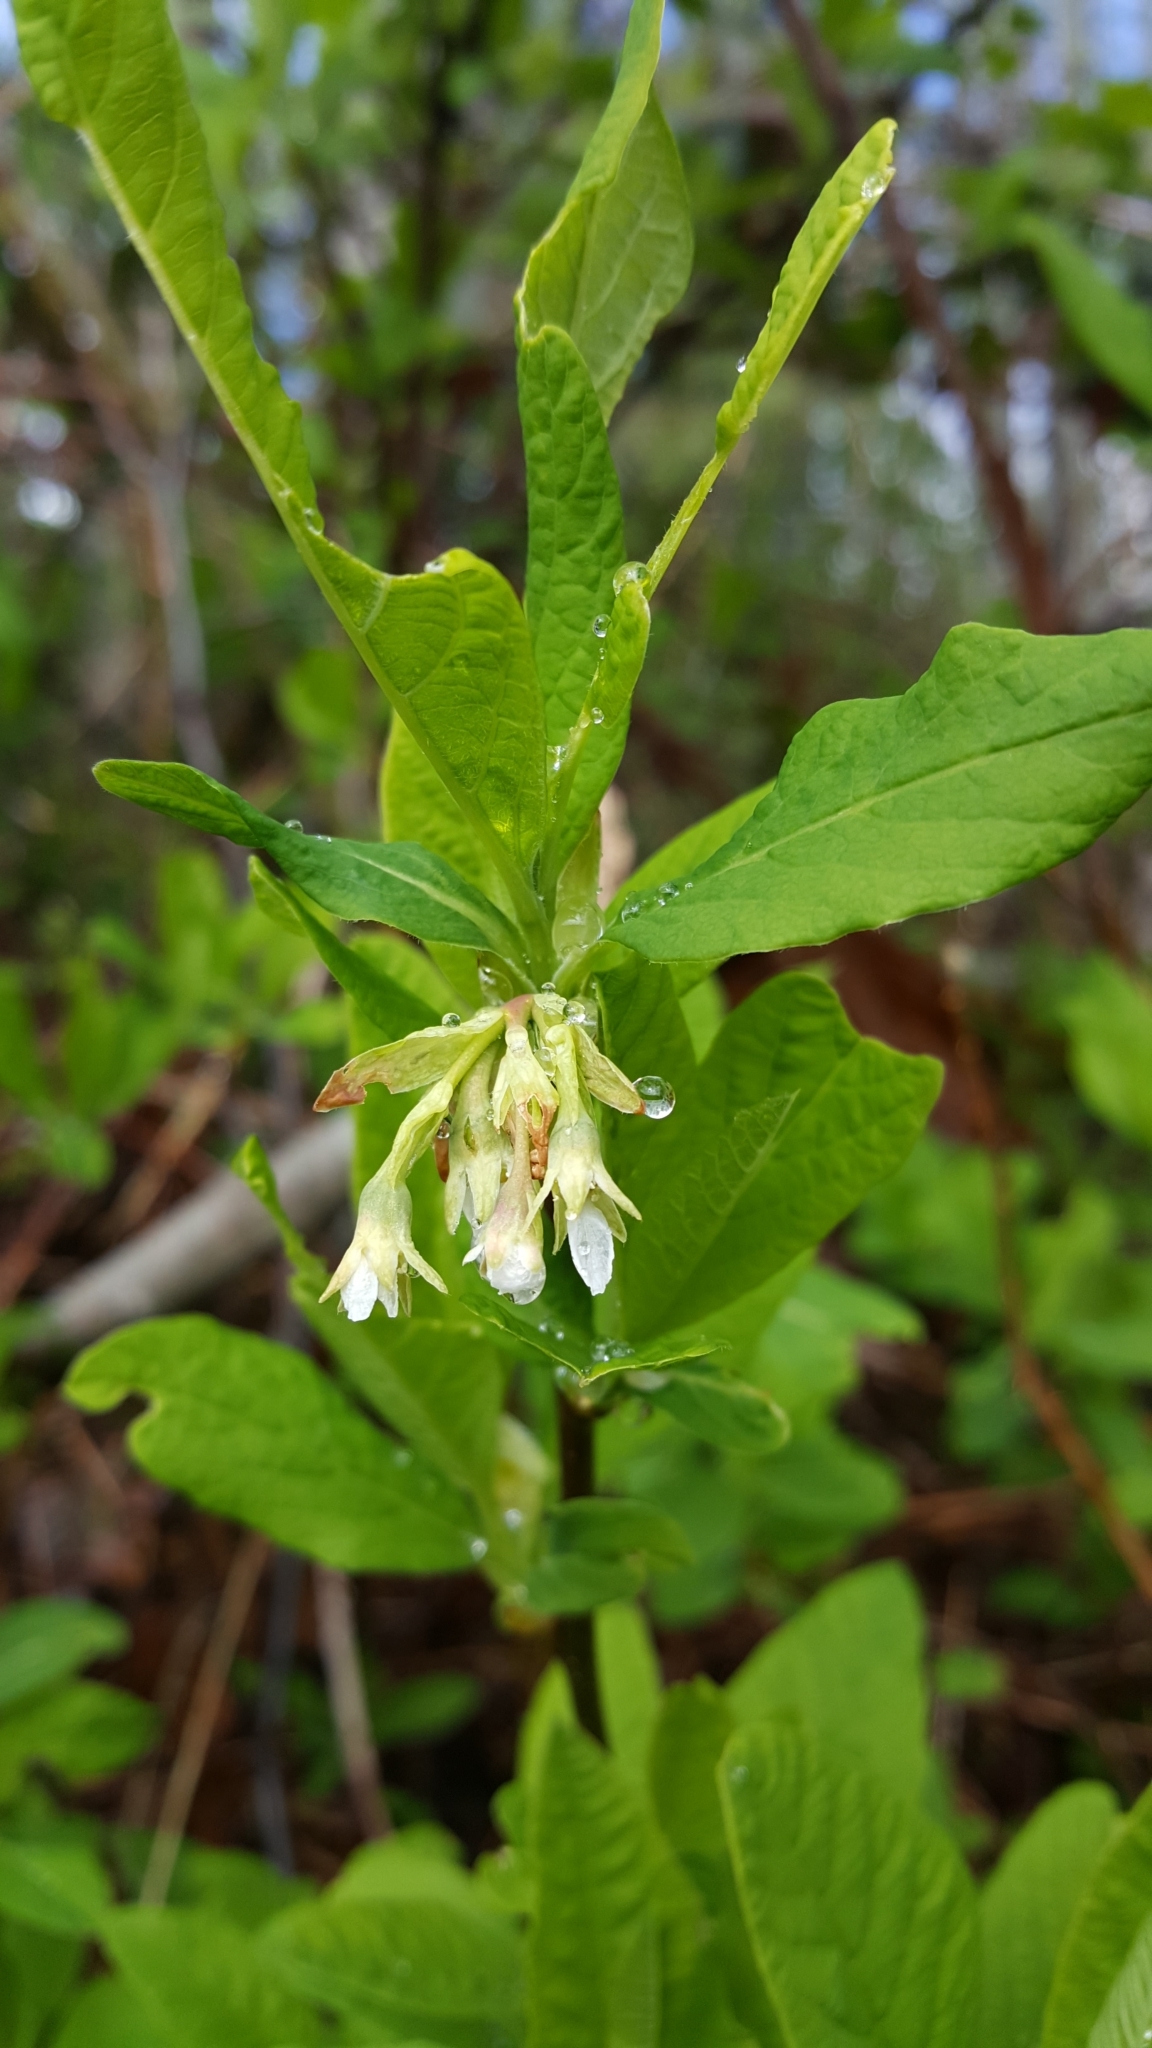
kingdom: Plantae
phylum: Tracheophyta
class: Magnoliopsida
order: Rosales
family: Rosaceae
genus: Oemleria
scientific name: Oemleria cerasiformis
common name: Osoberry
